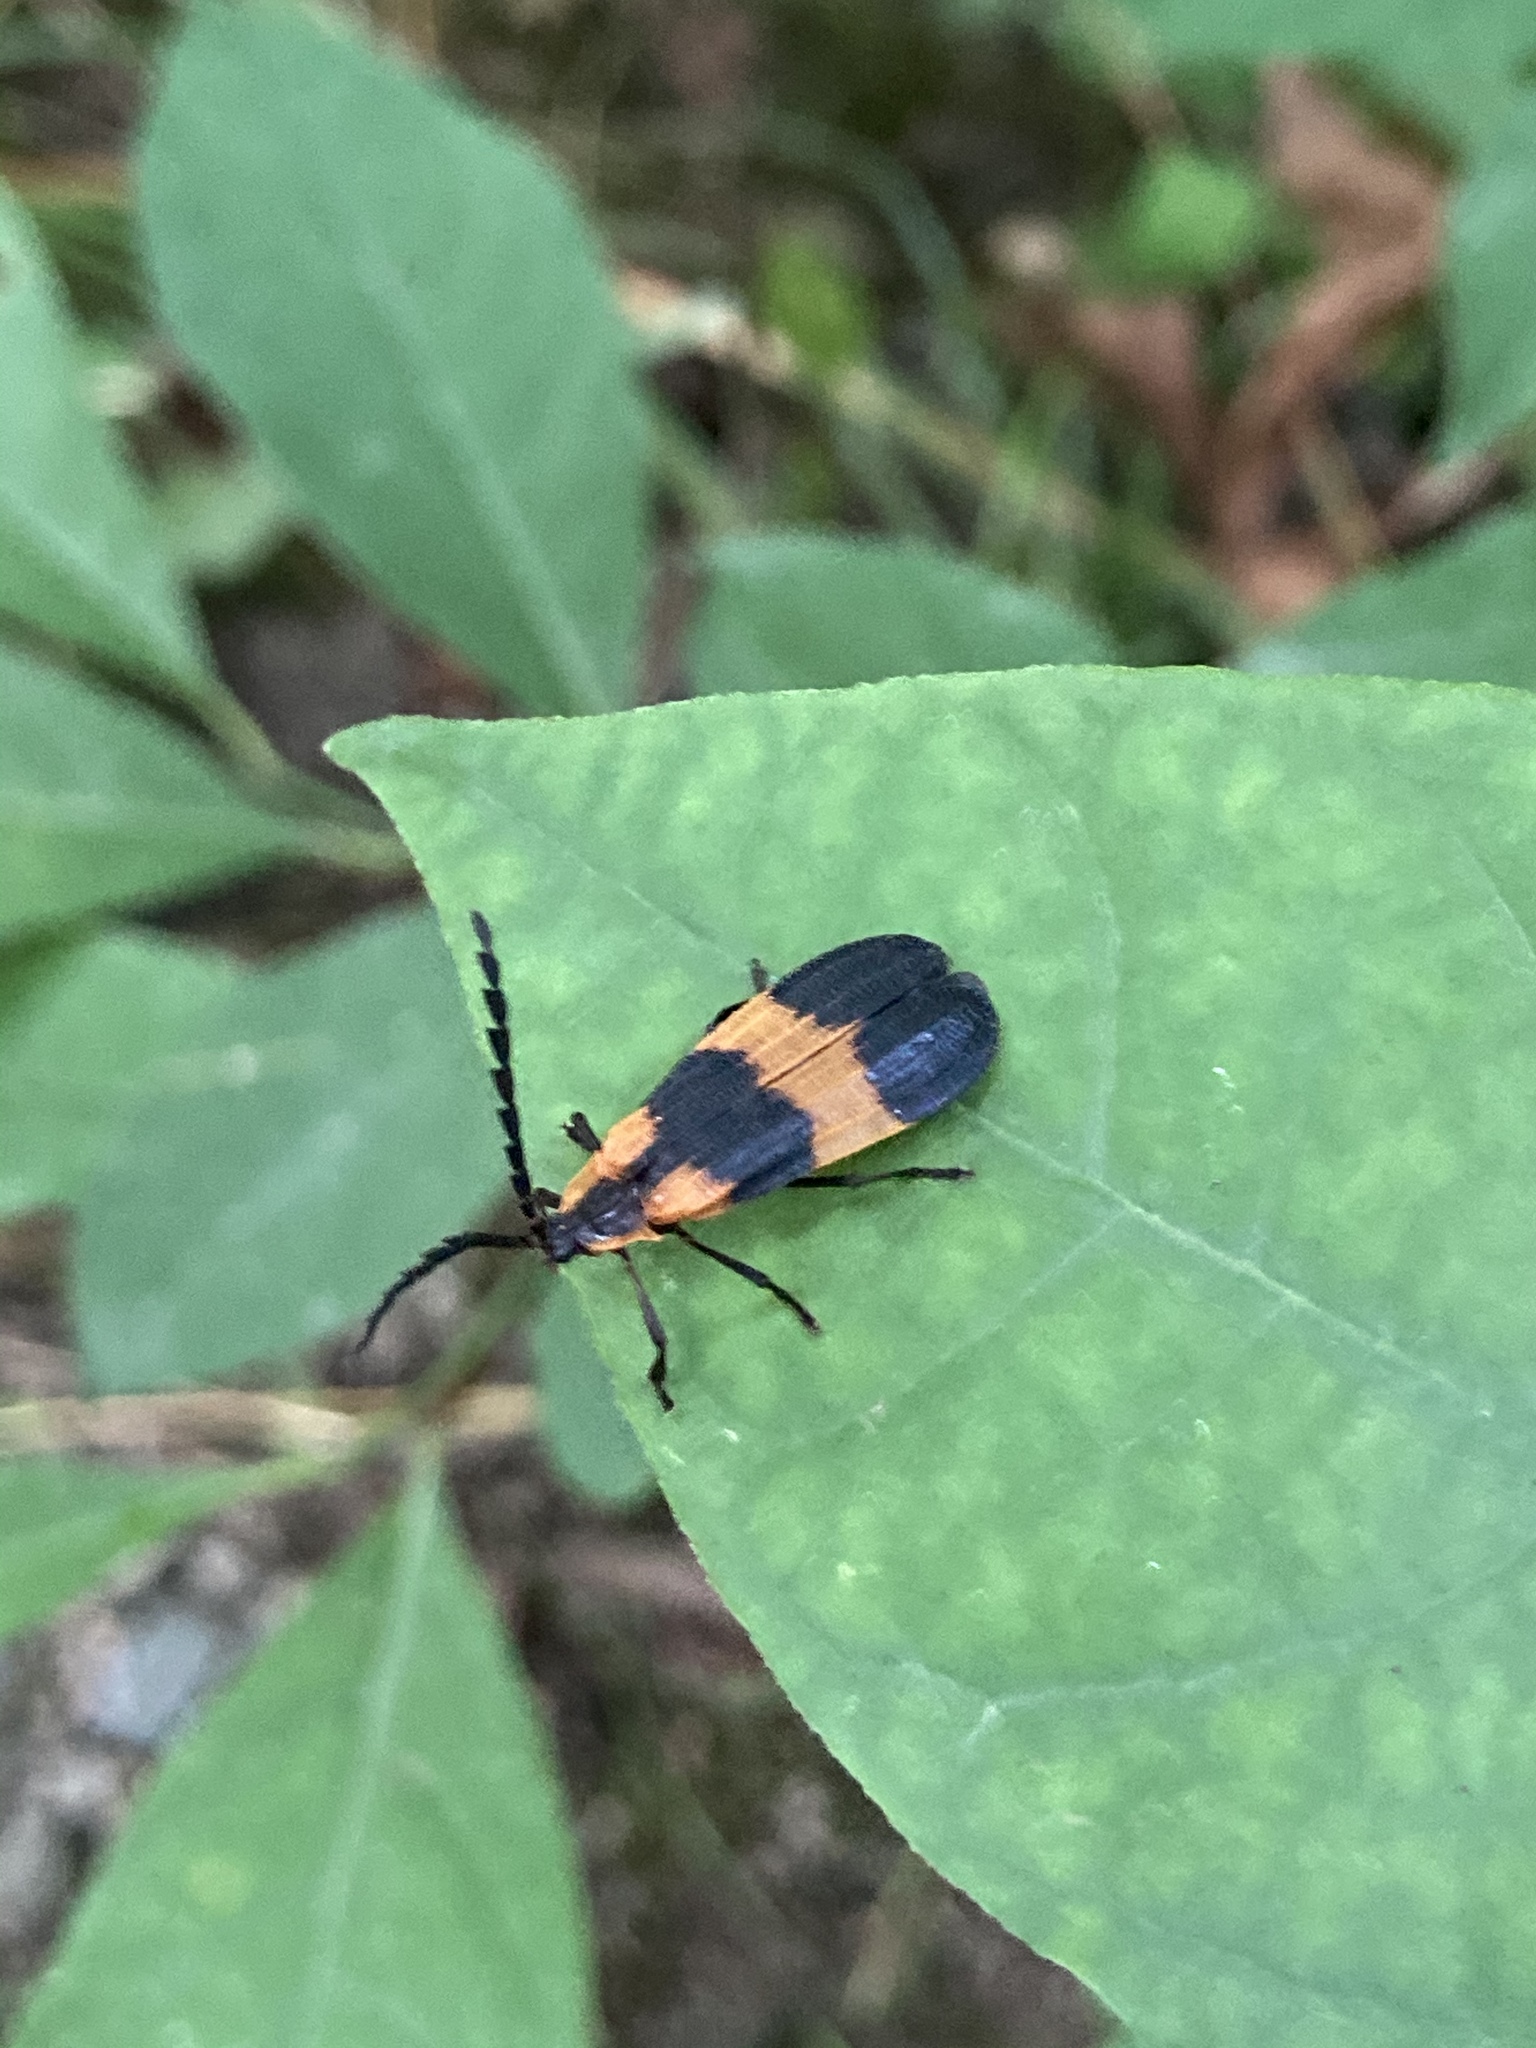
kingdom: Animalia
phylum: Arthropoda
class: Insecta
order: Coleoptera
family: Lycidae
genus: Calopteron
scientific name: Calopteron reticulatum
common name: Banded net-winged beetle
